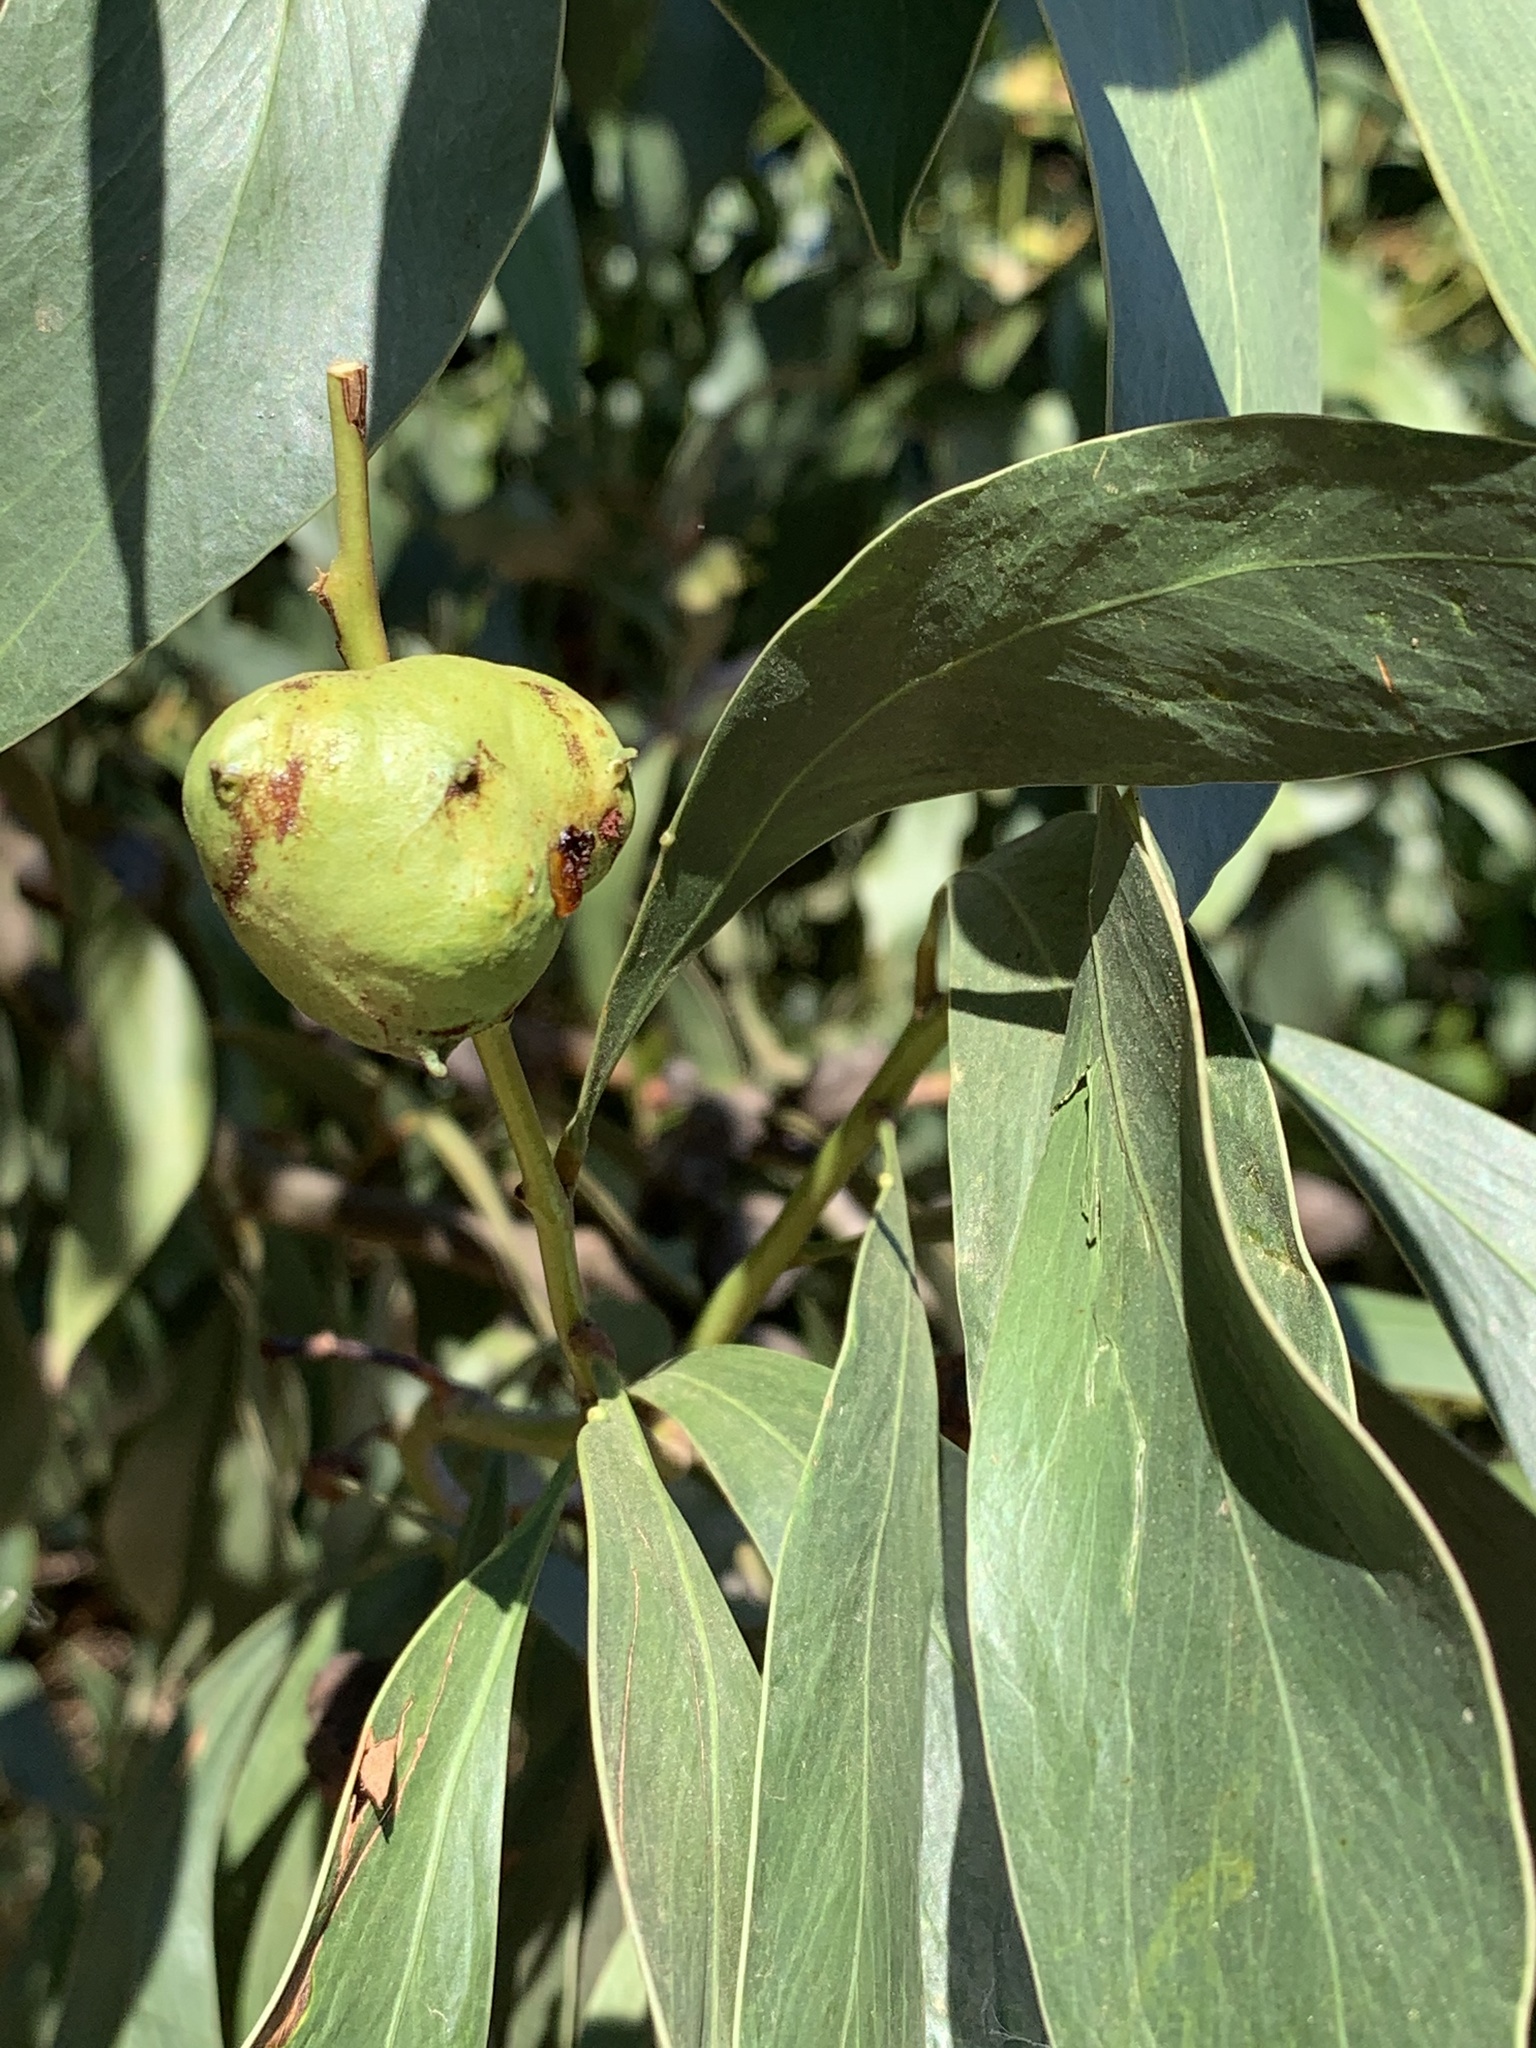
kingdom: Plantae
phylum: Tracheophyta
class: Magnoliopsida
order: Fabales
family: Fabaceae
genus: Acacia
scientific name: Acacia pycnantha
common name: Golden wattle
